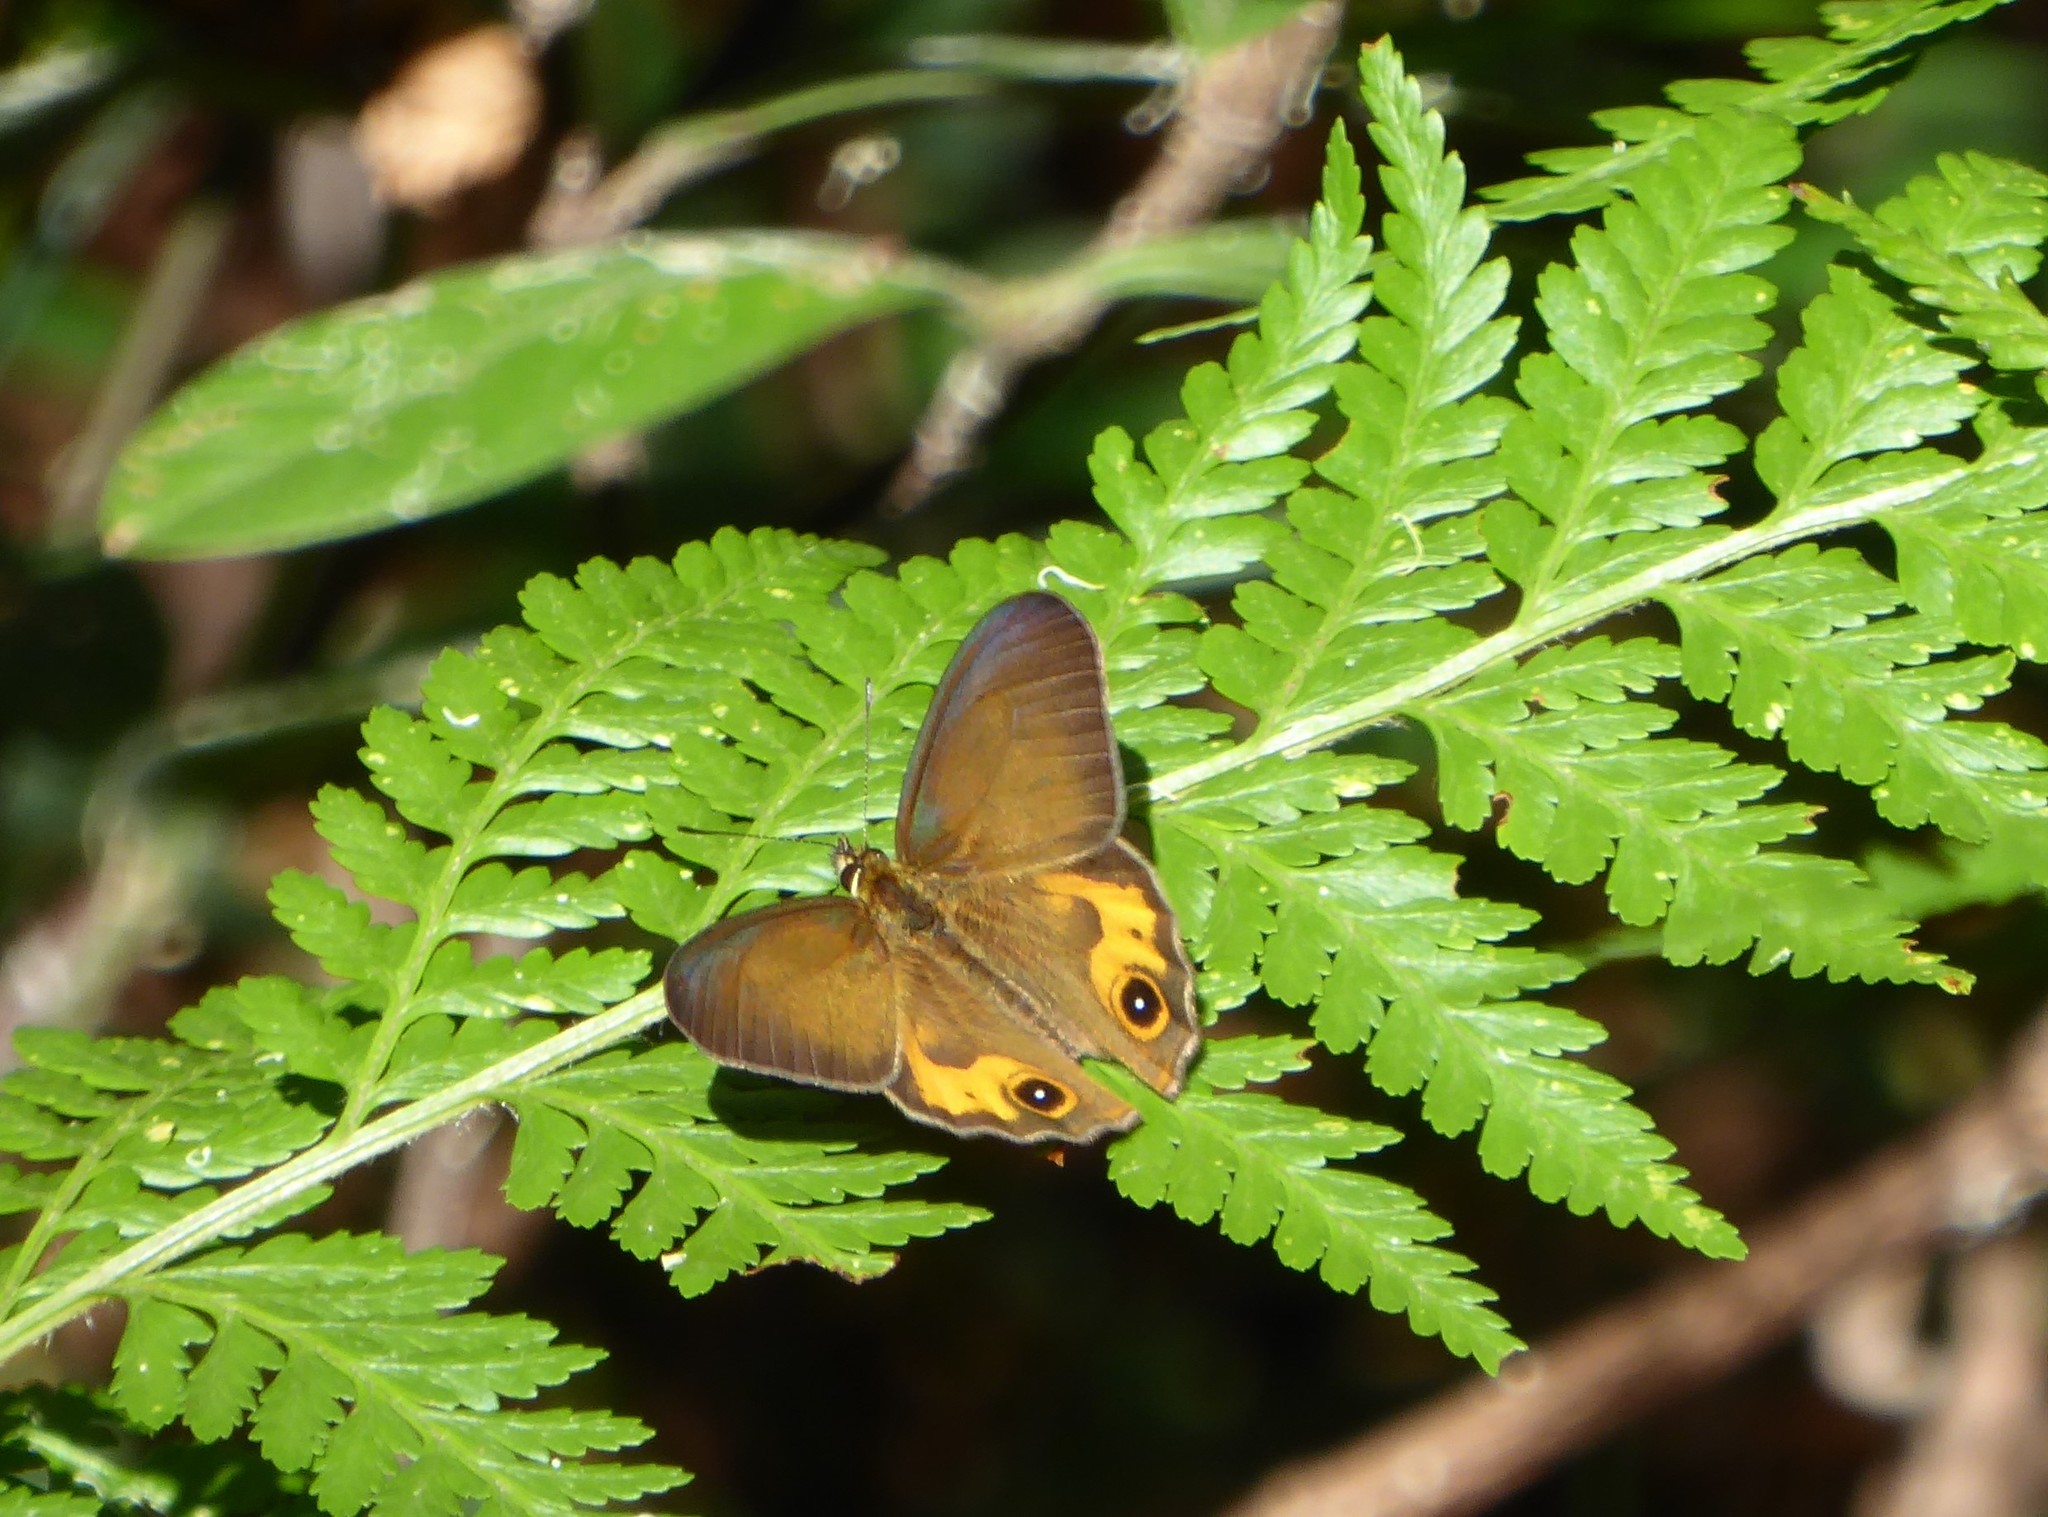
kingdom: Animalia
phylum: Arthropoda
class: Insecta
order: Lepidoptera
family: Nymphalidae
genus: Hypocysta
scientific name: Hypocysta metirius
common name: Brown ringlet
